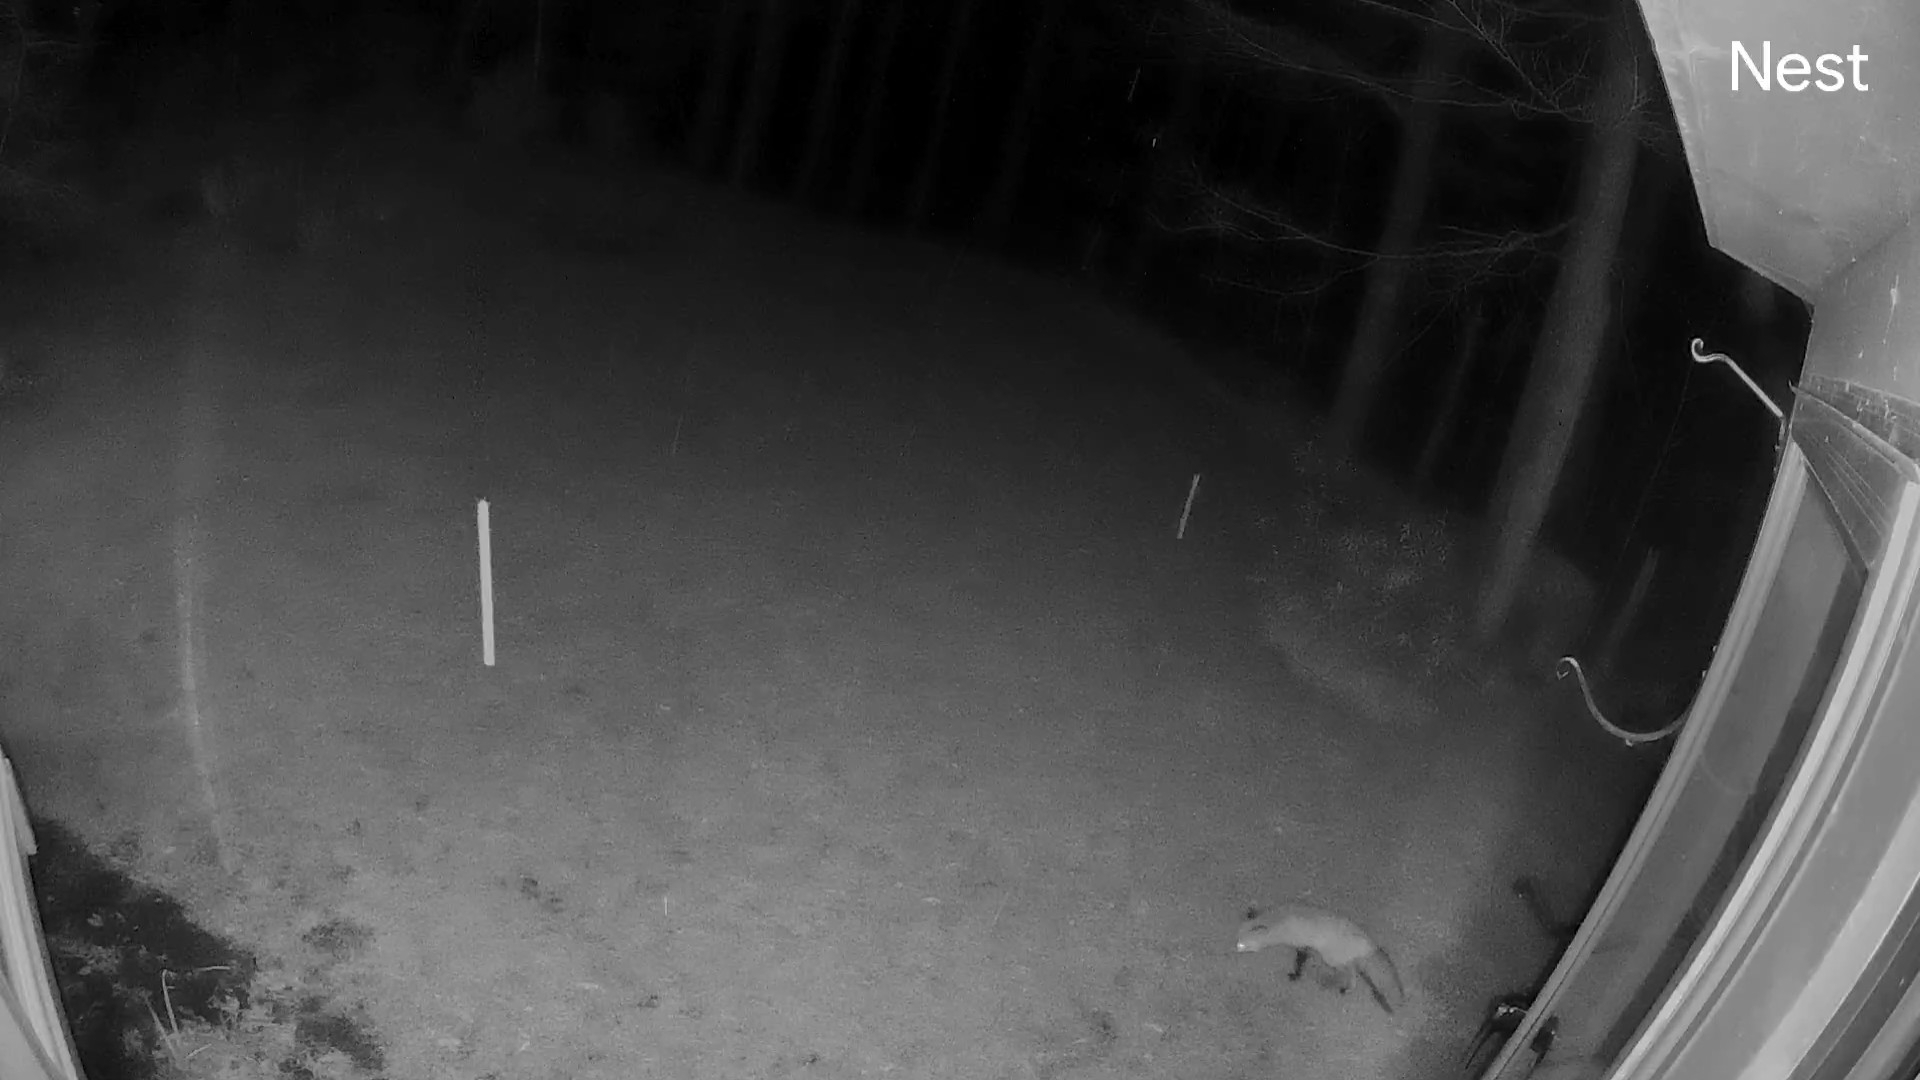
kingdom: Animalia
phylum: Chordata
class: Mammalia
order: Carnivora
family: Canidae
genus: Vulpes
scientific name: Vulpes vulpes
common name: Red fox
